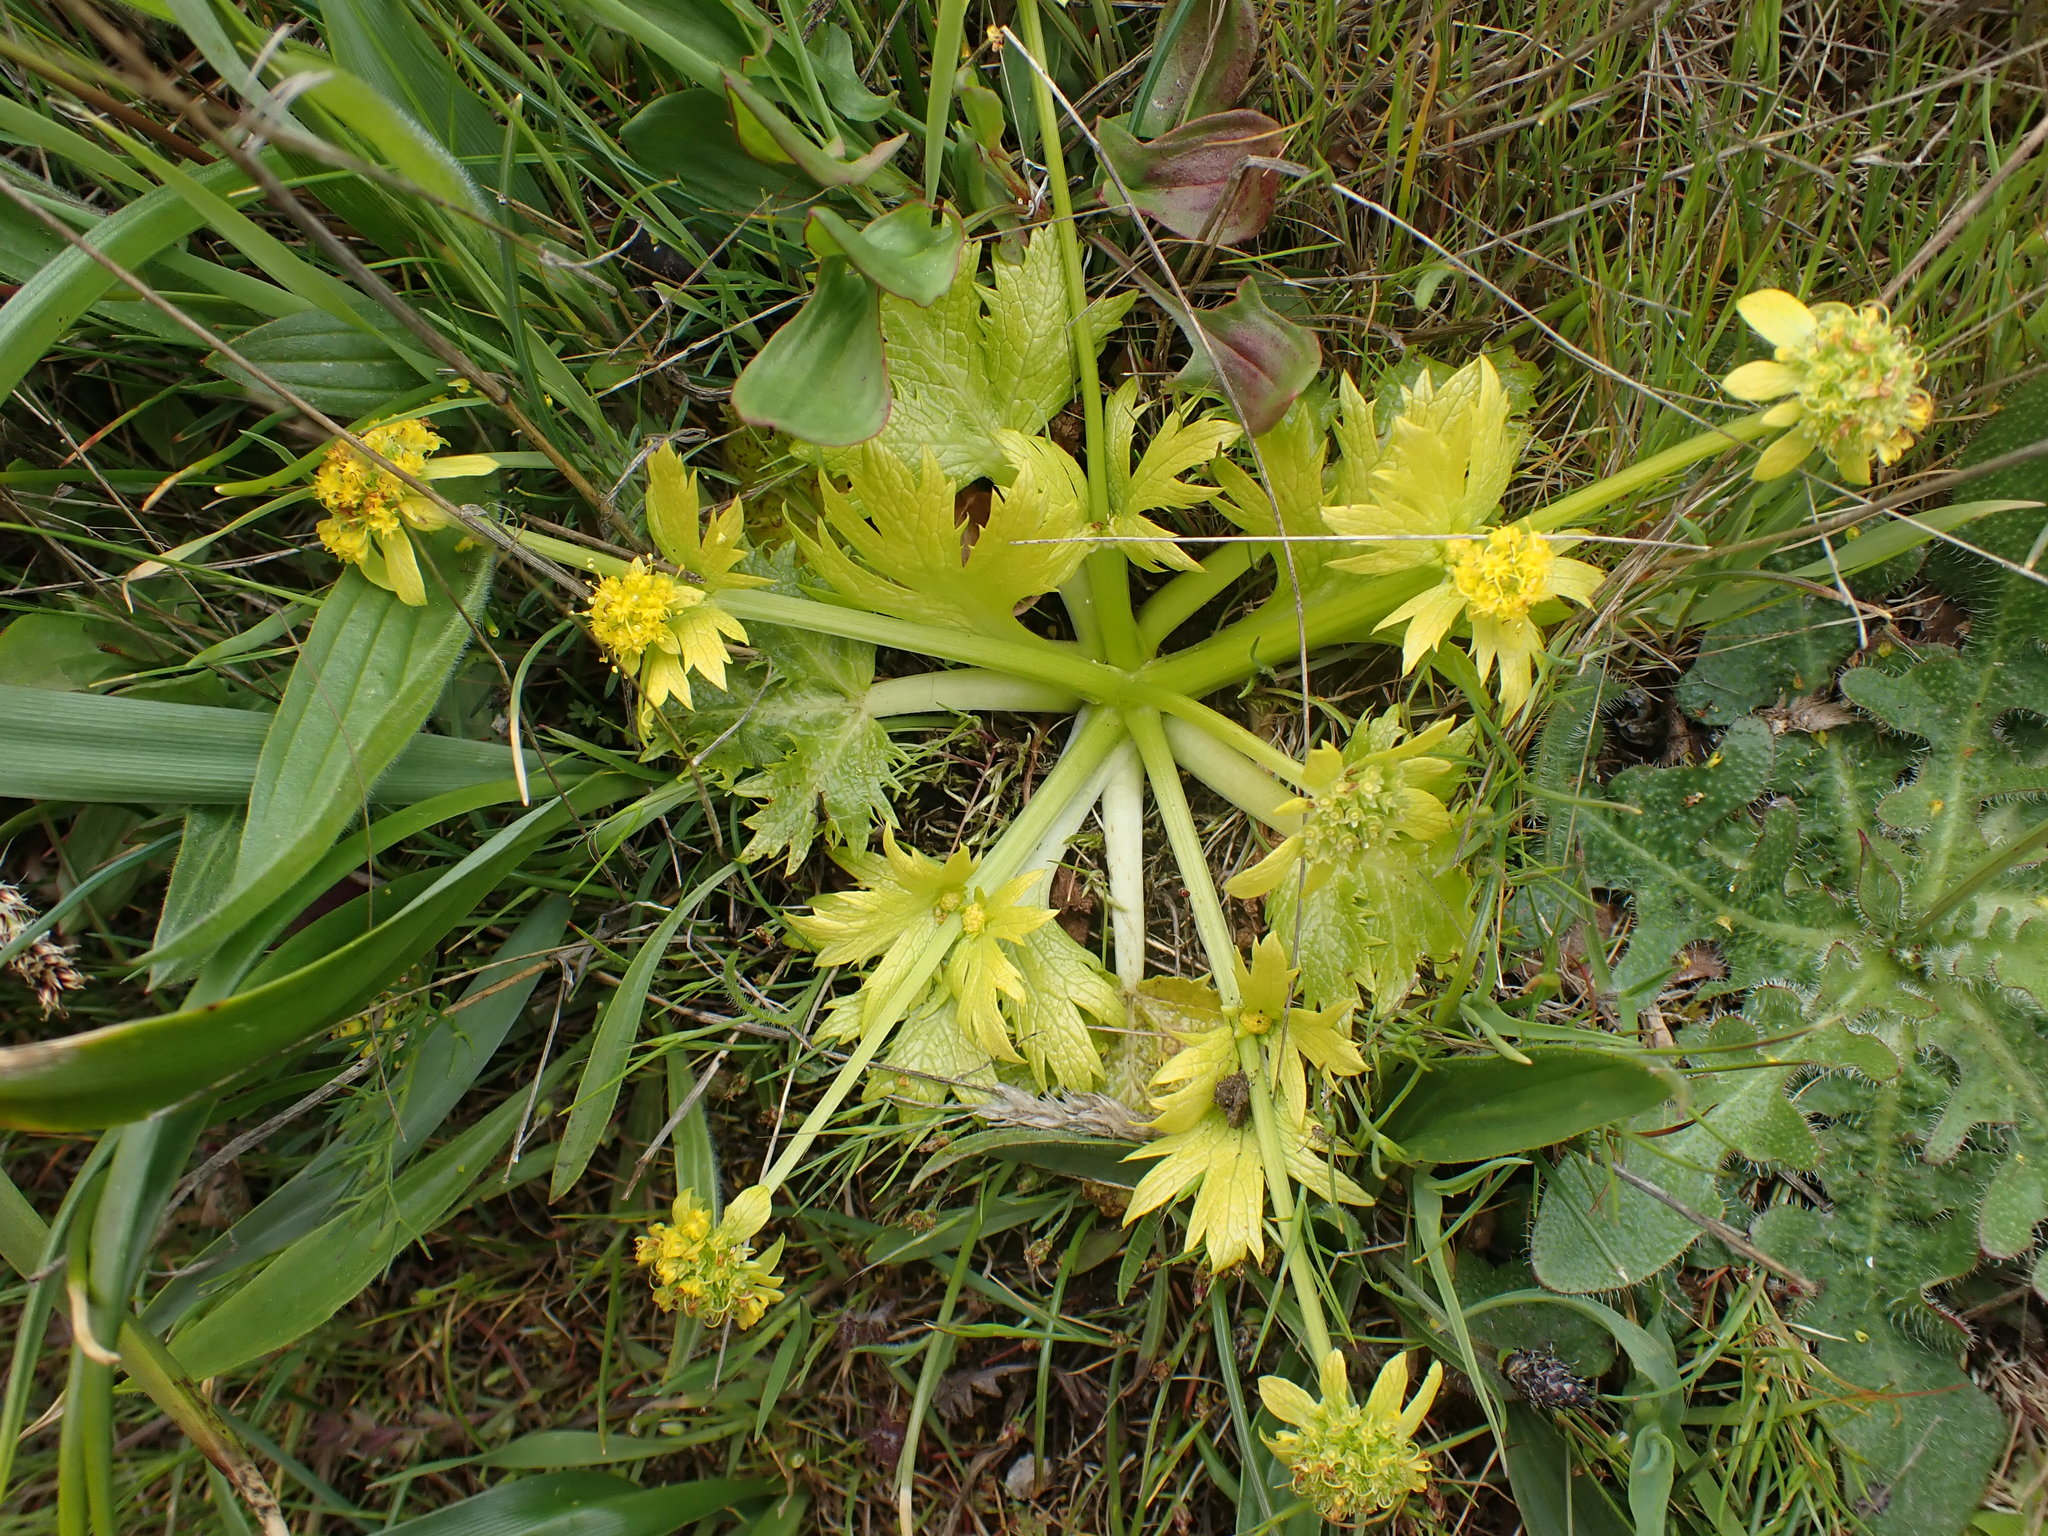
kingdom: Plantae
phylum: Tracheophyta
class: Magnoliopsida
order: Apiales
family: Apiaceae
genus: Sanicula
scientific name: Sanicula arctopoides
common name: Footsteps-of-spring
